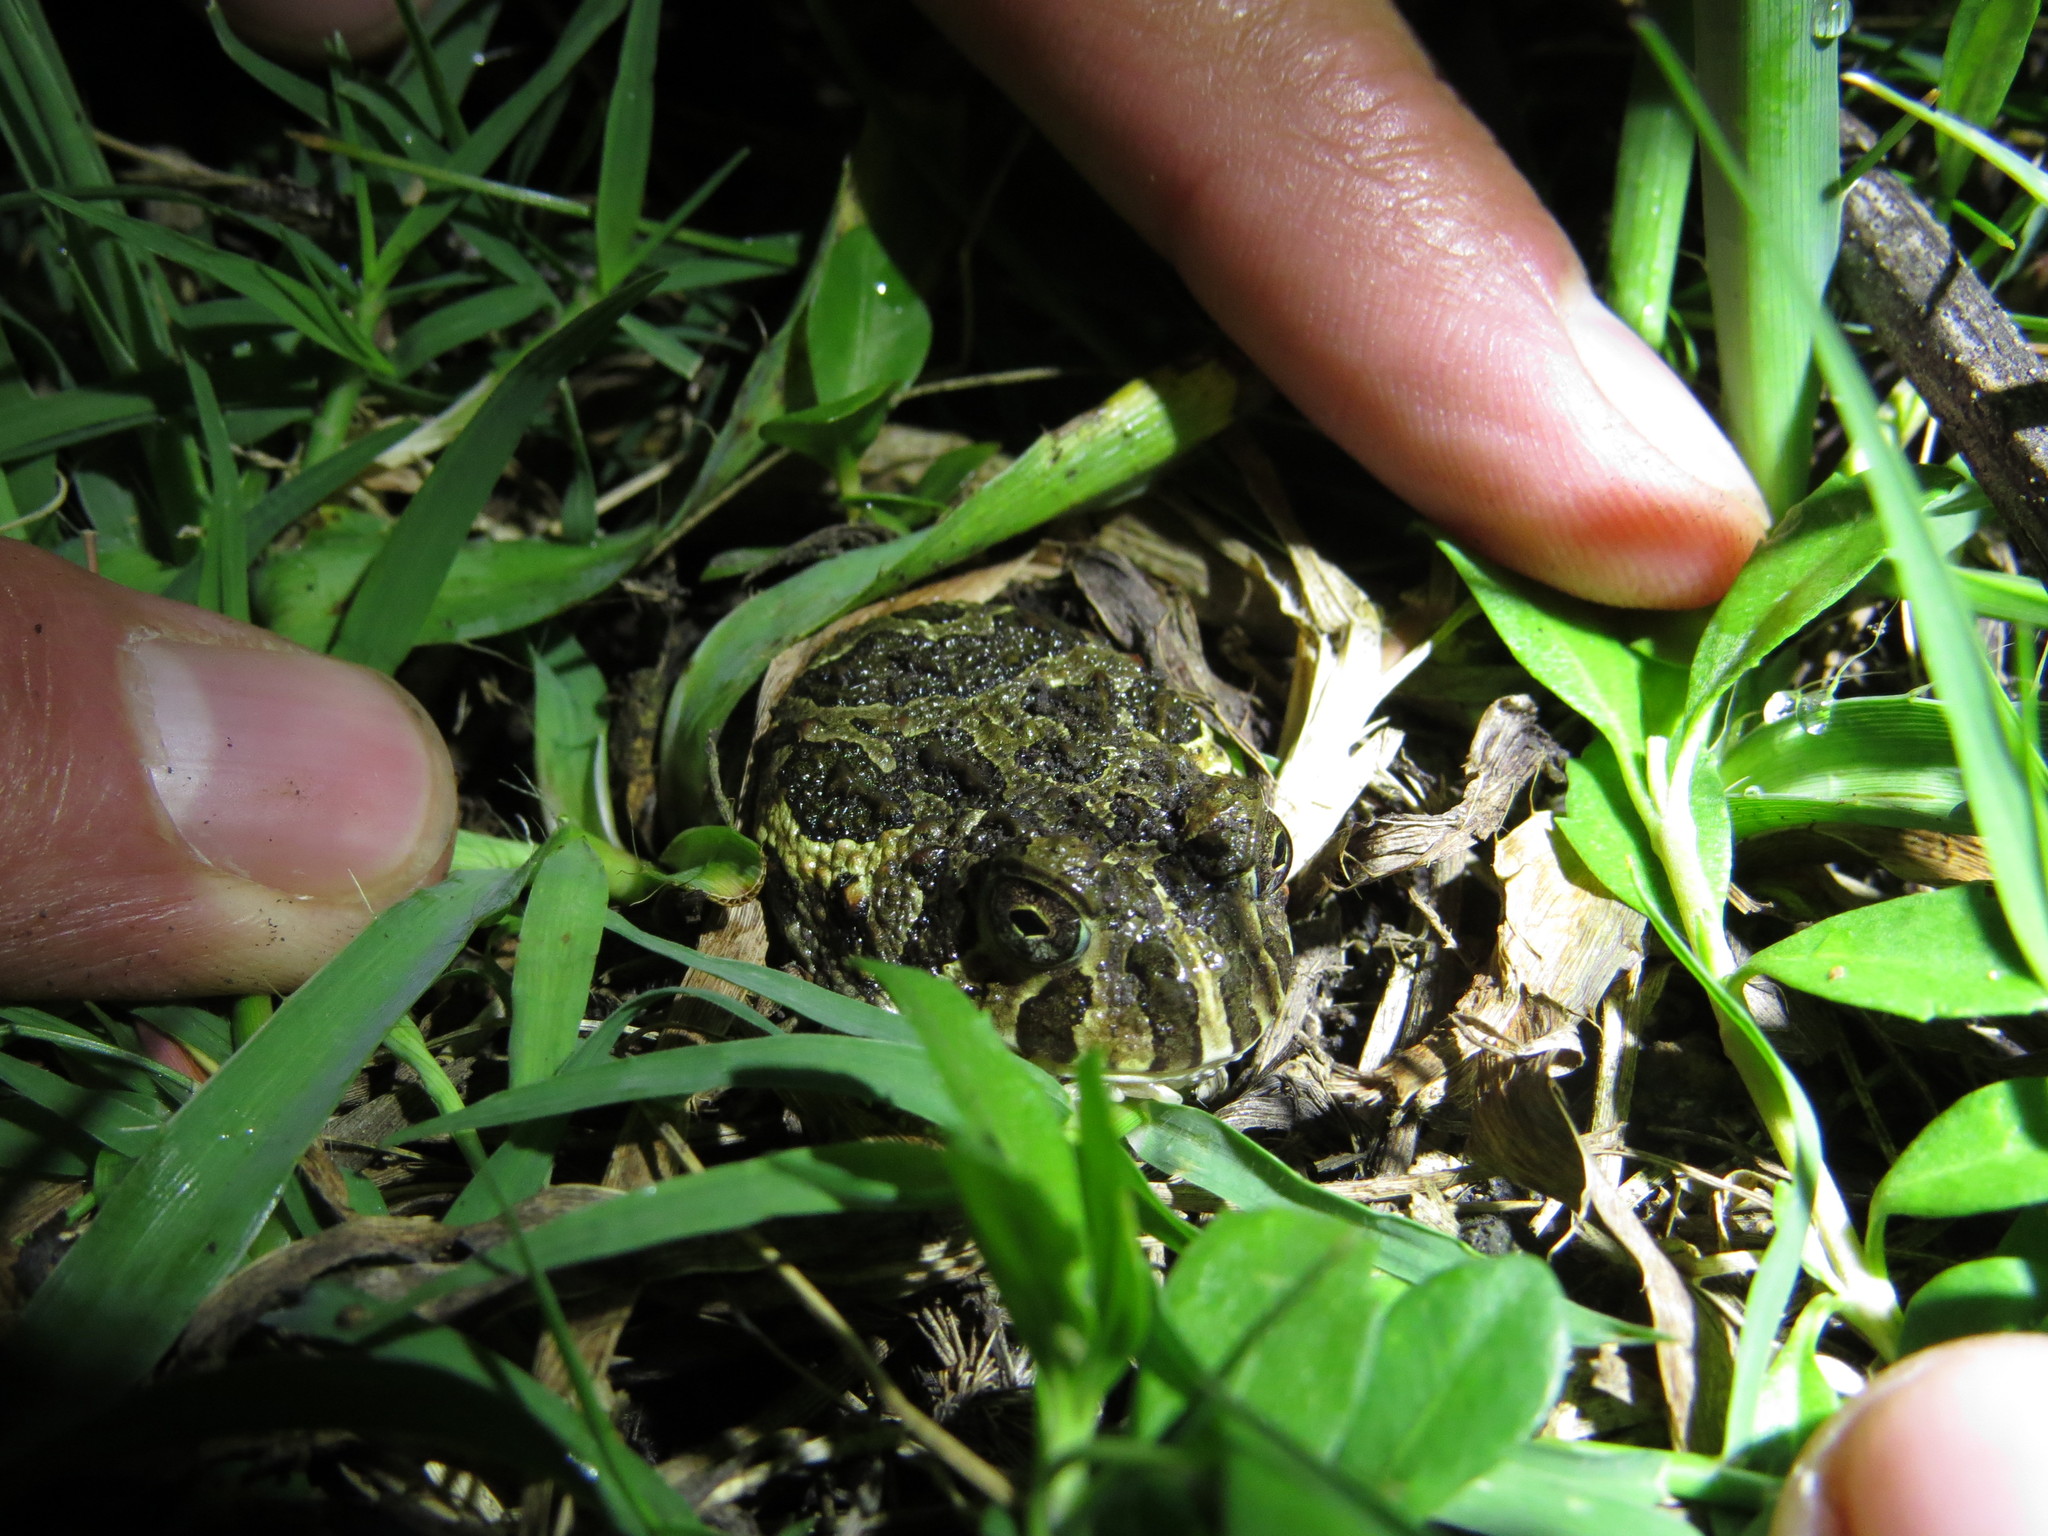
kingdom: Animalia
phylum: Chordata
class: Amphibia
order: Anura
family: Odontophrynidae
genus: Odontophrynus
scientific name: Odontophrynus
